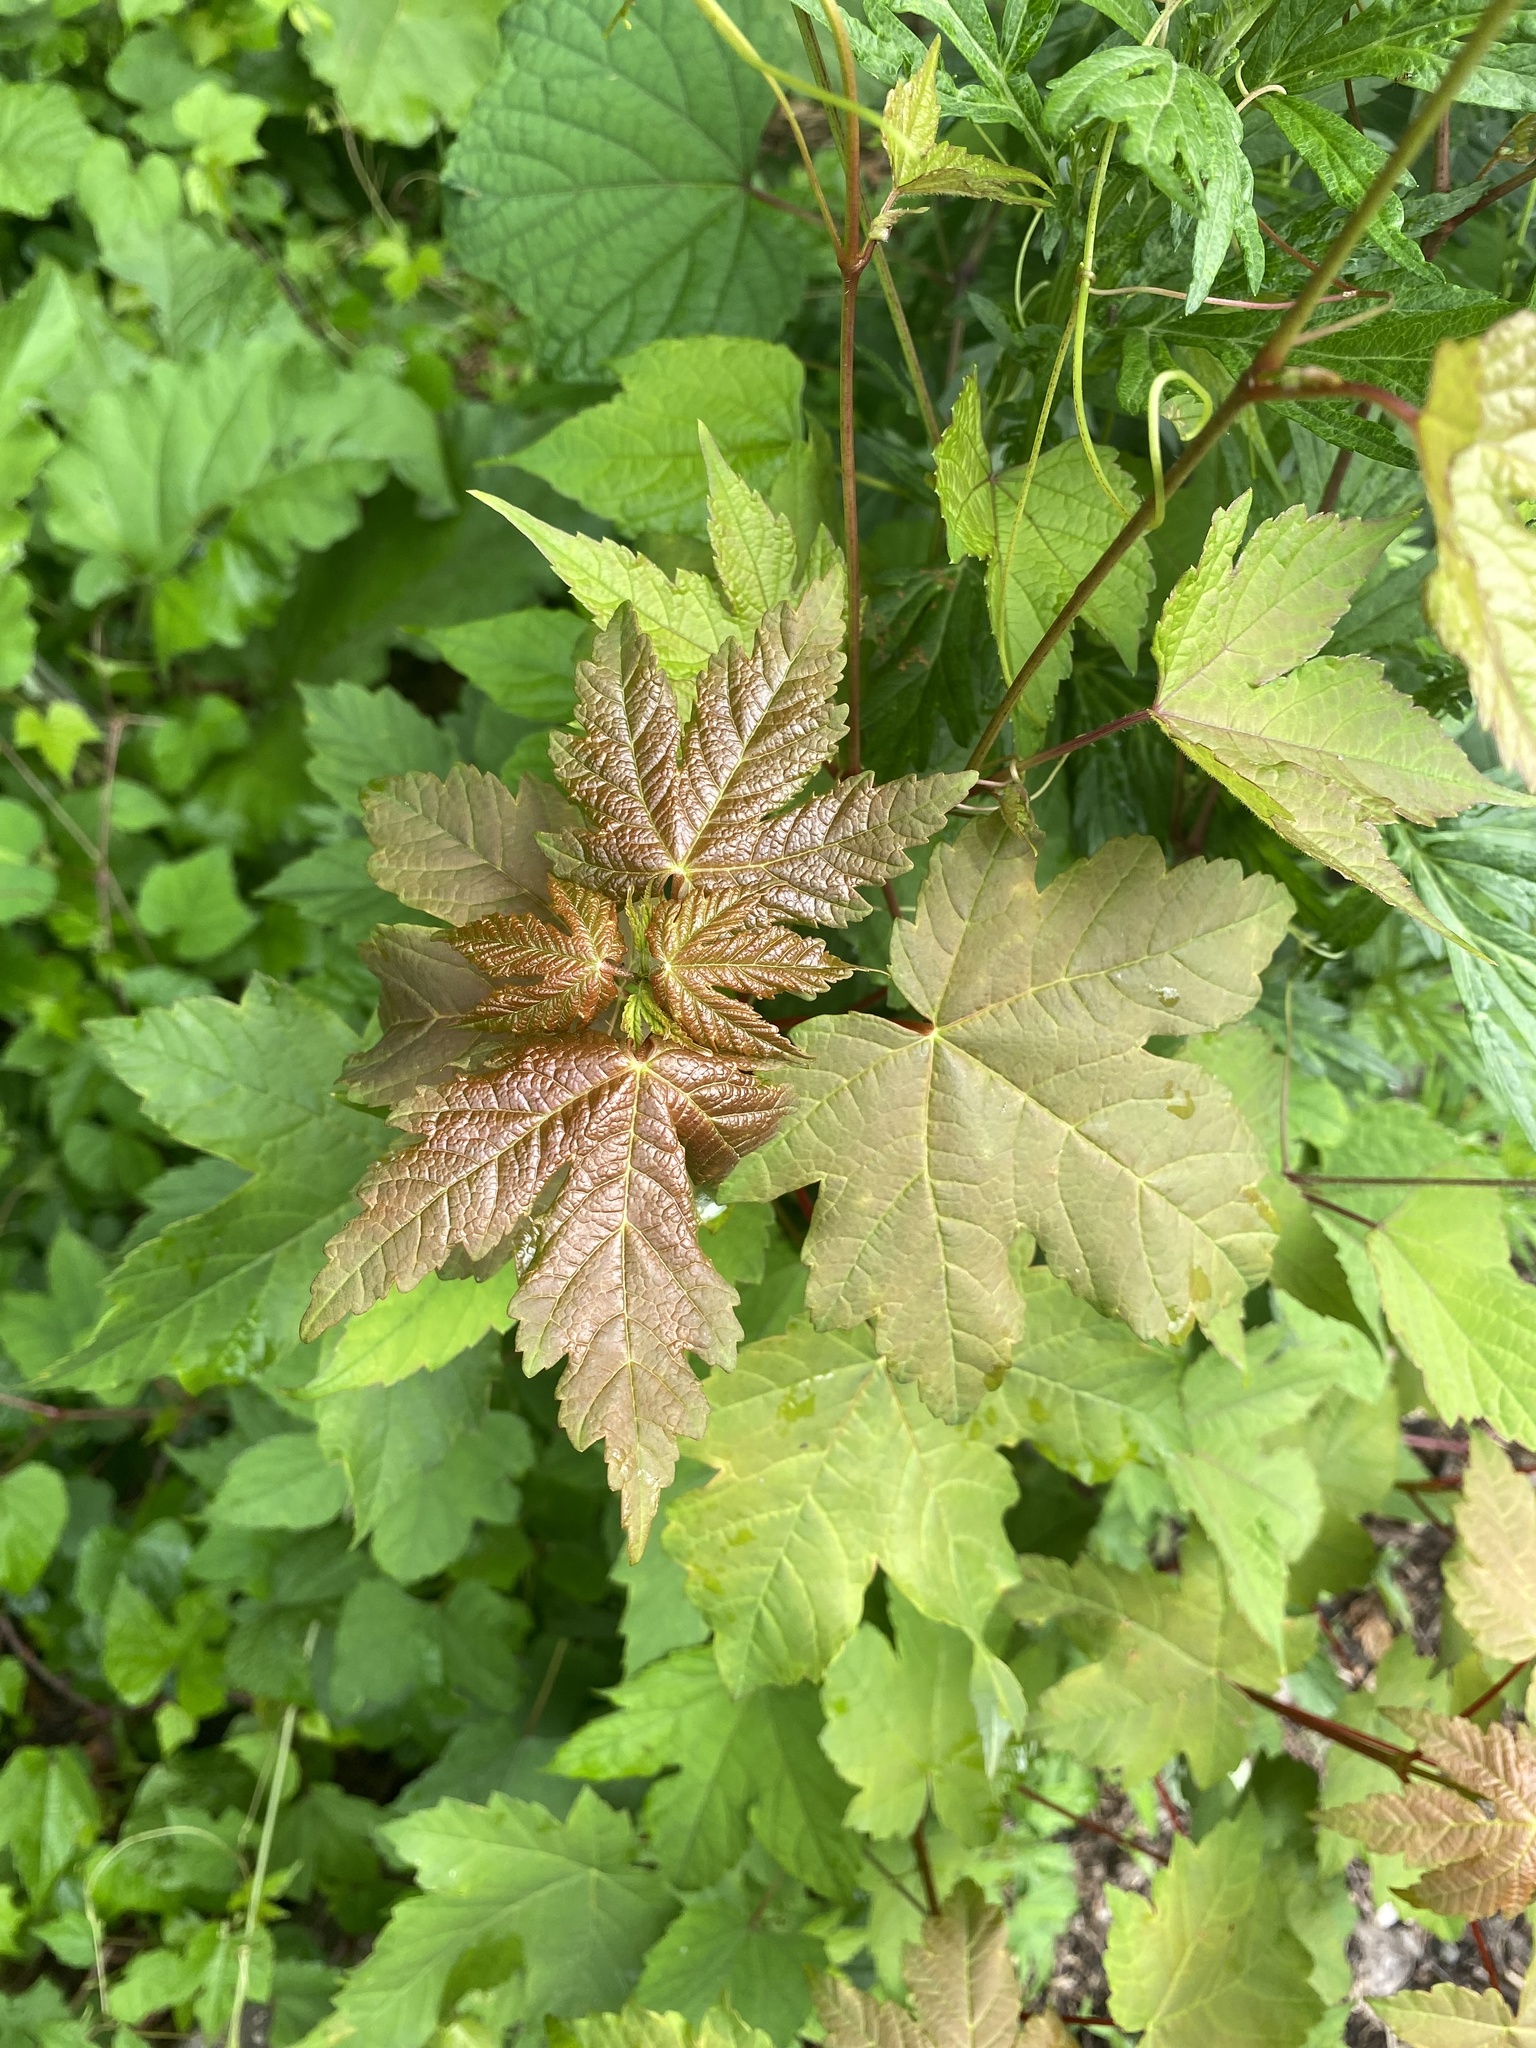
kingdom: Plantae
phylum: Tracheophyta
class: Magnoliopsida
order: Sapindales
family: Sapindaceae
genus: Acer
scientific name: Acer pseudoplatanus
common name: Sycamore
